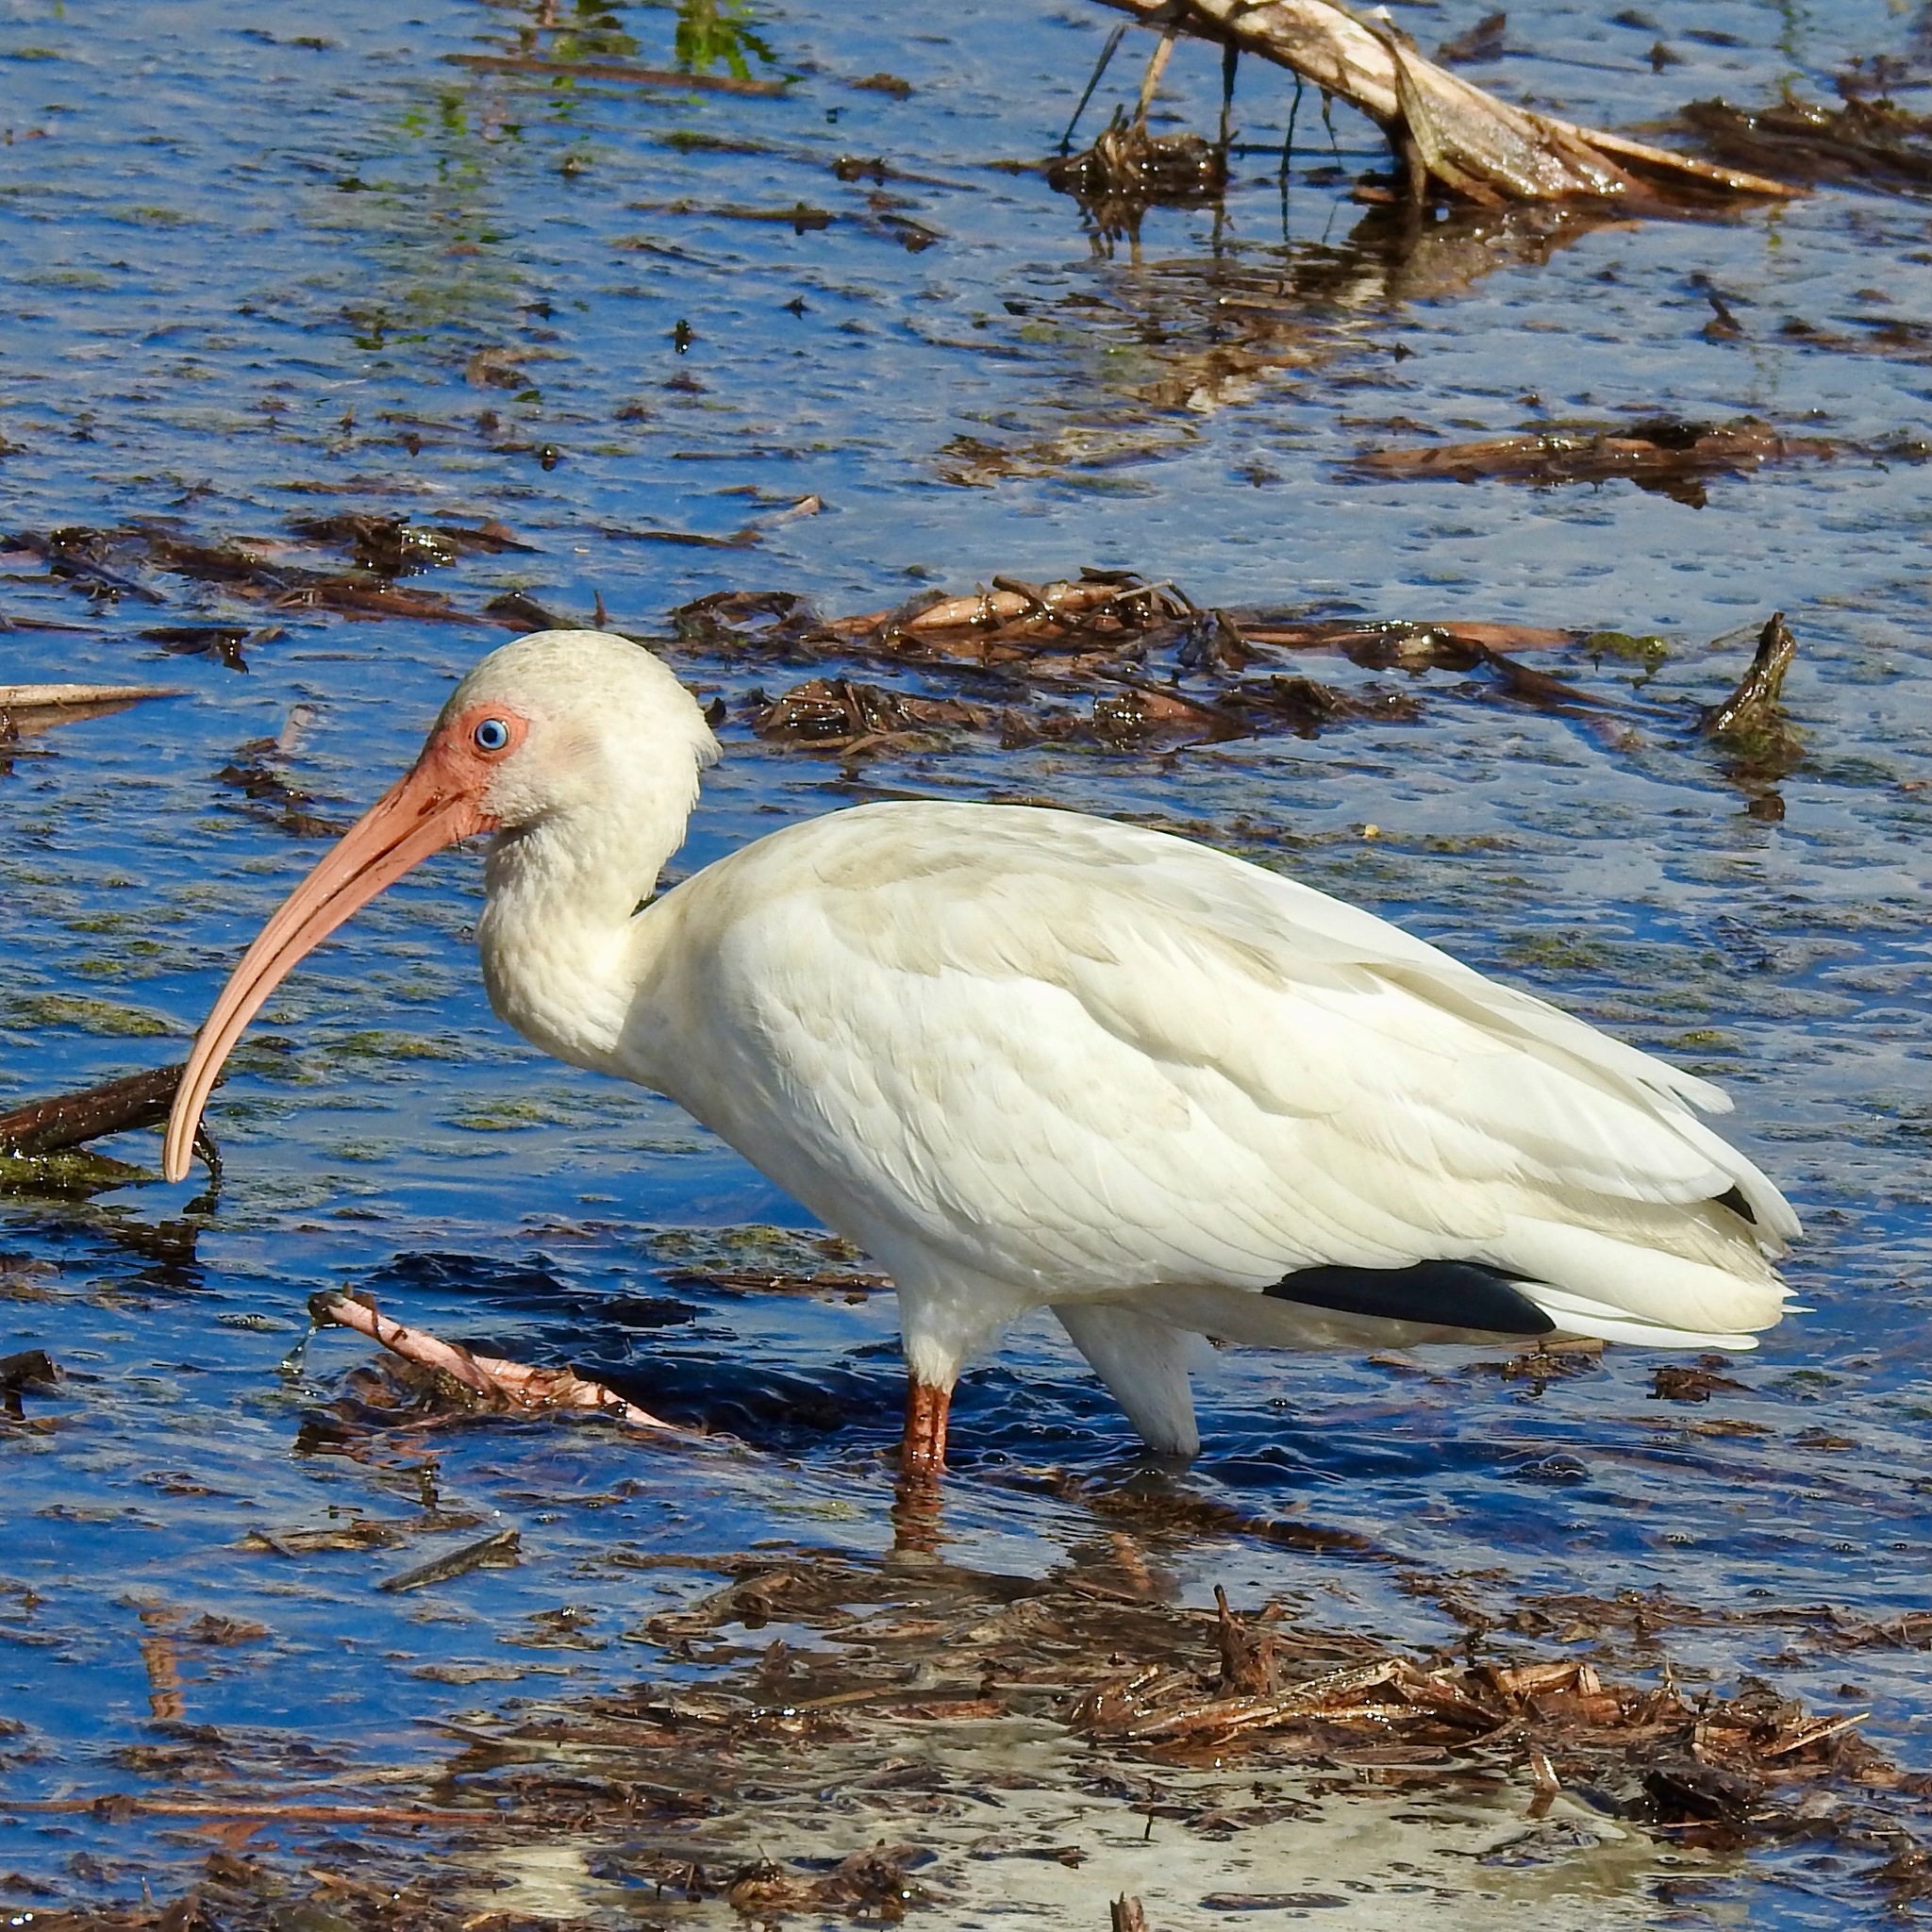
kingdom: Animalia
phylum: Chordata
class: Aves
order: Pelecaniformes
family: Threskiornithidae
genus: Eudocimus
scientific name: Eudocimus albus
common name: White ibis
